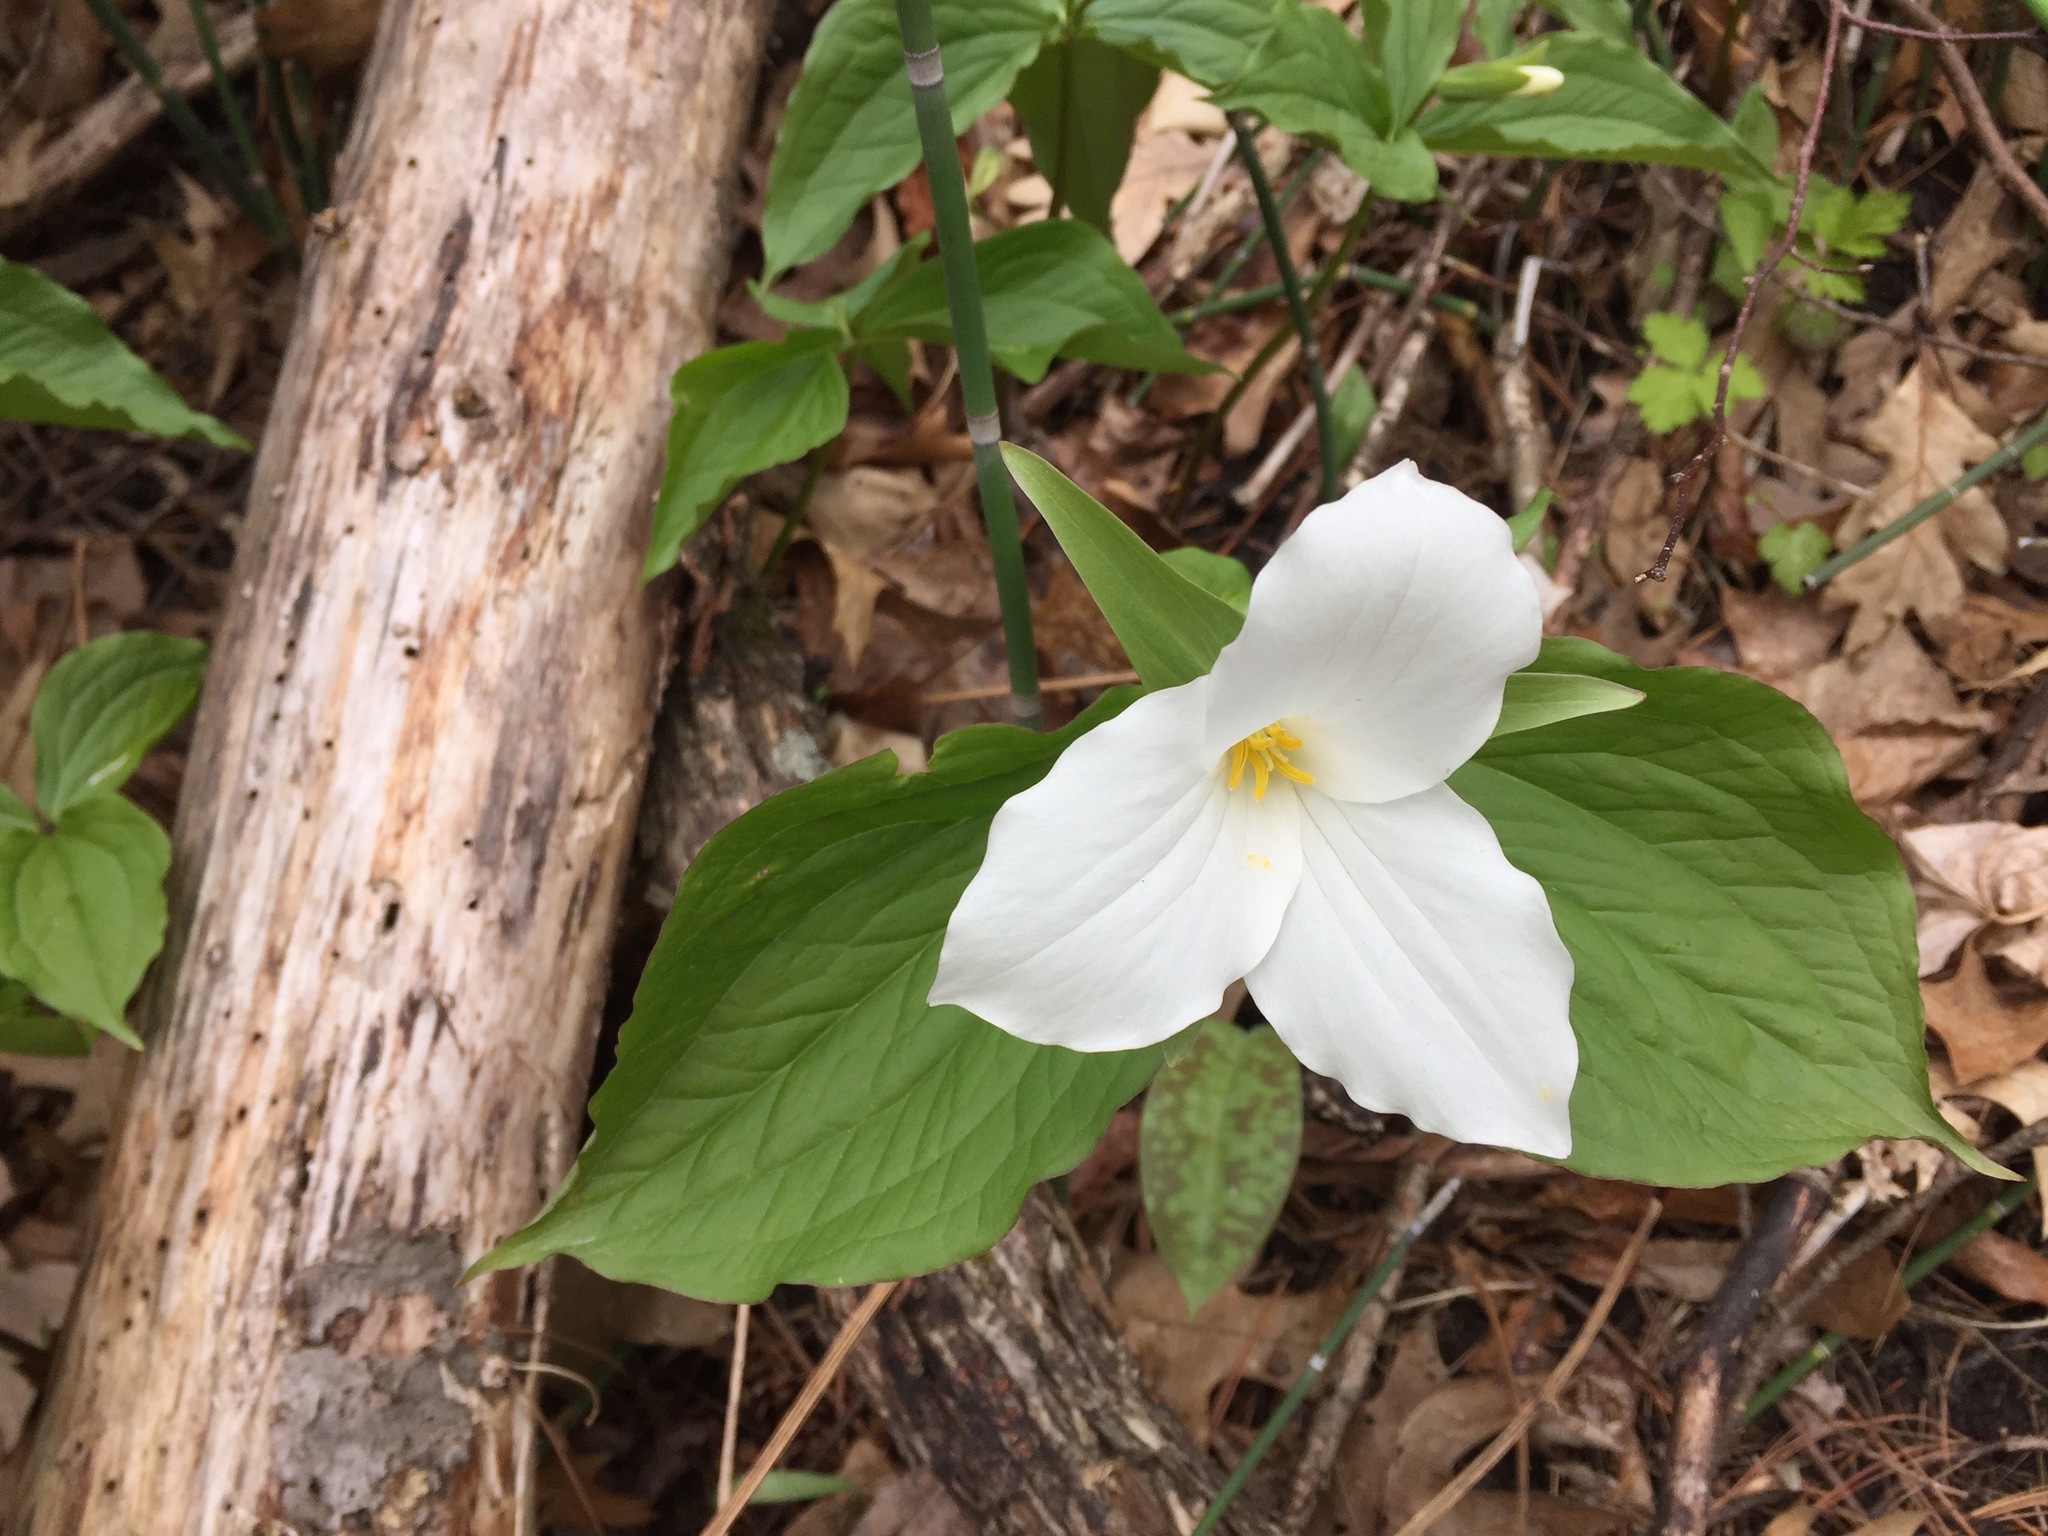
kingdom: Plantae
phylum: Tracheophyta
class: Liliopsida
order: Liliales
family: Melanthiaceae
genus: Trillium
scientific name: Trillium grandiflorum
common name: Great white trillium
